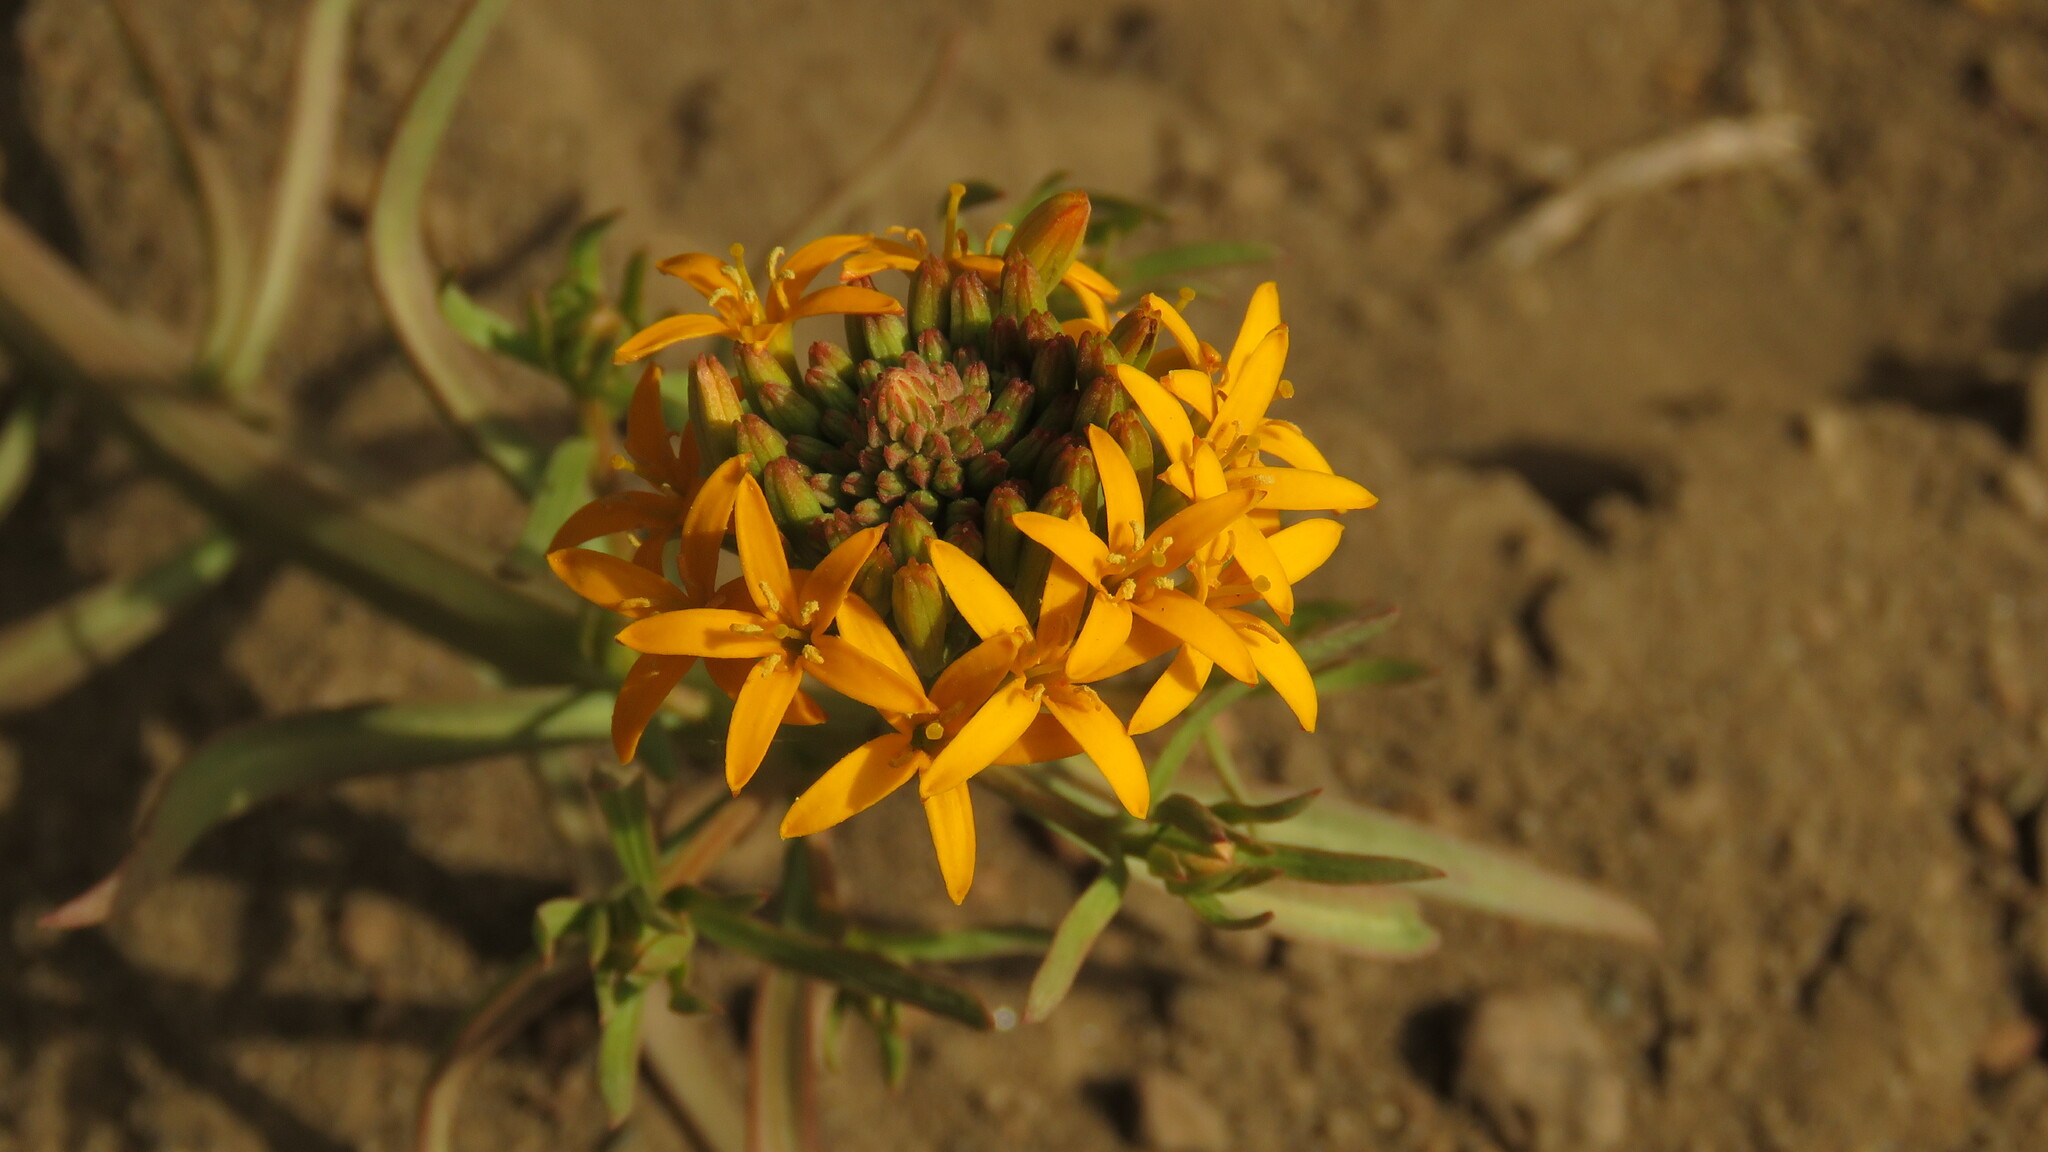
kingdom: Plantae
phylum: Tracheophyta
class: Magnoliopsida
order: Santalales
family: Schoepfiaceae
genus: Quinchamalium
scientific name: Quinchamalium chilense
